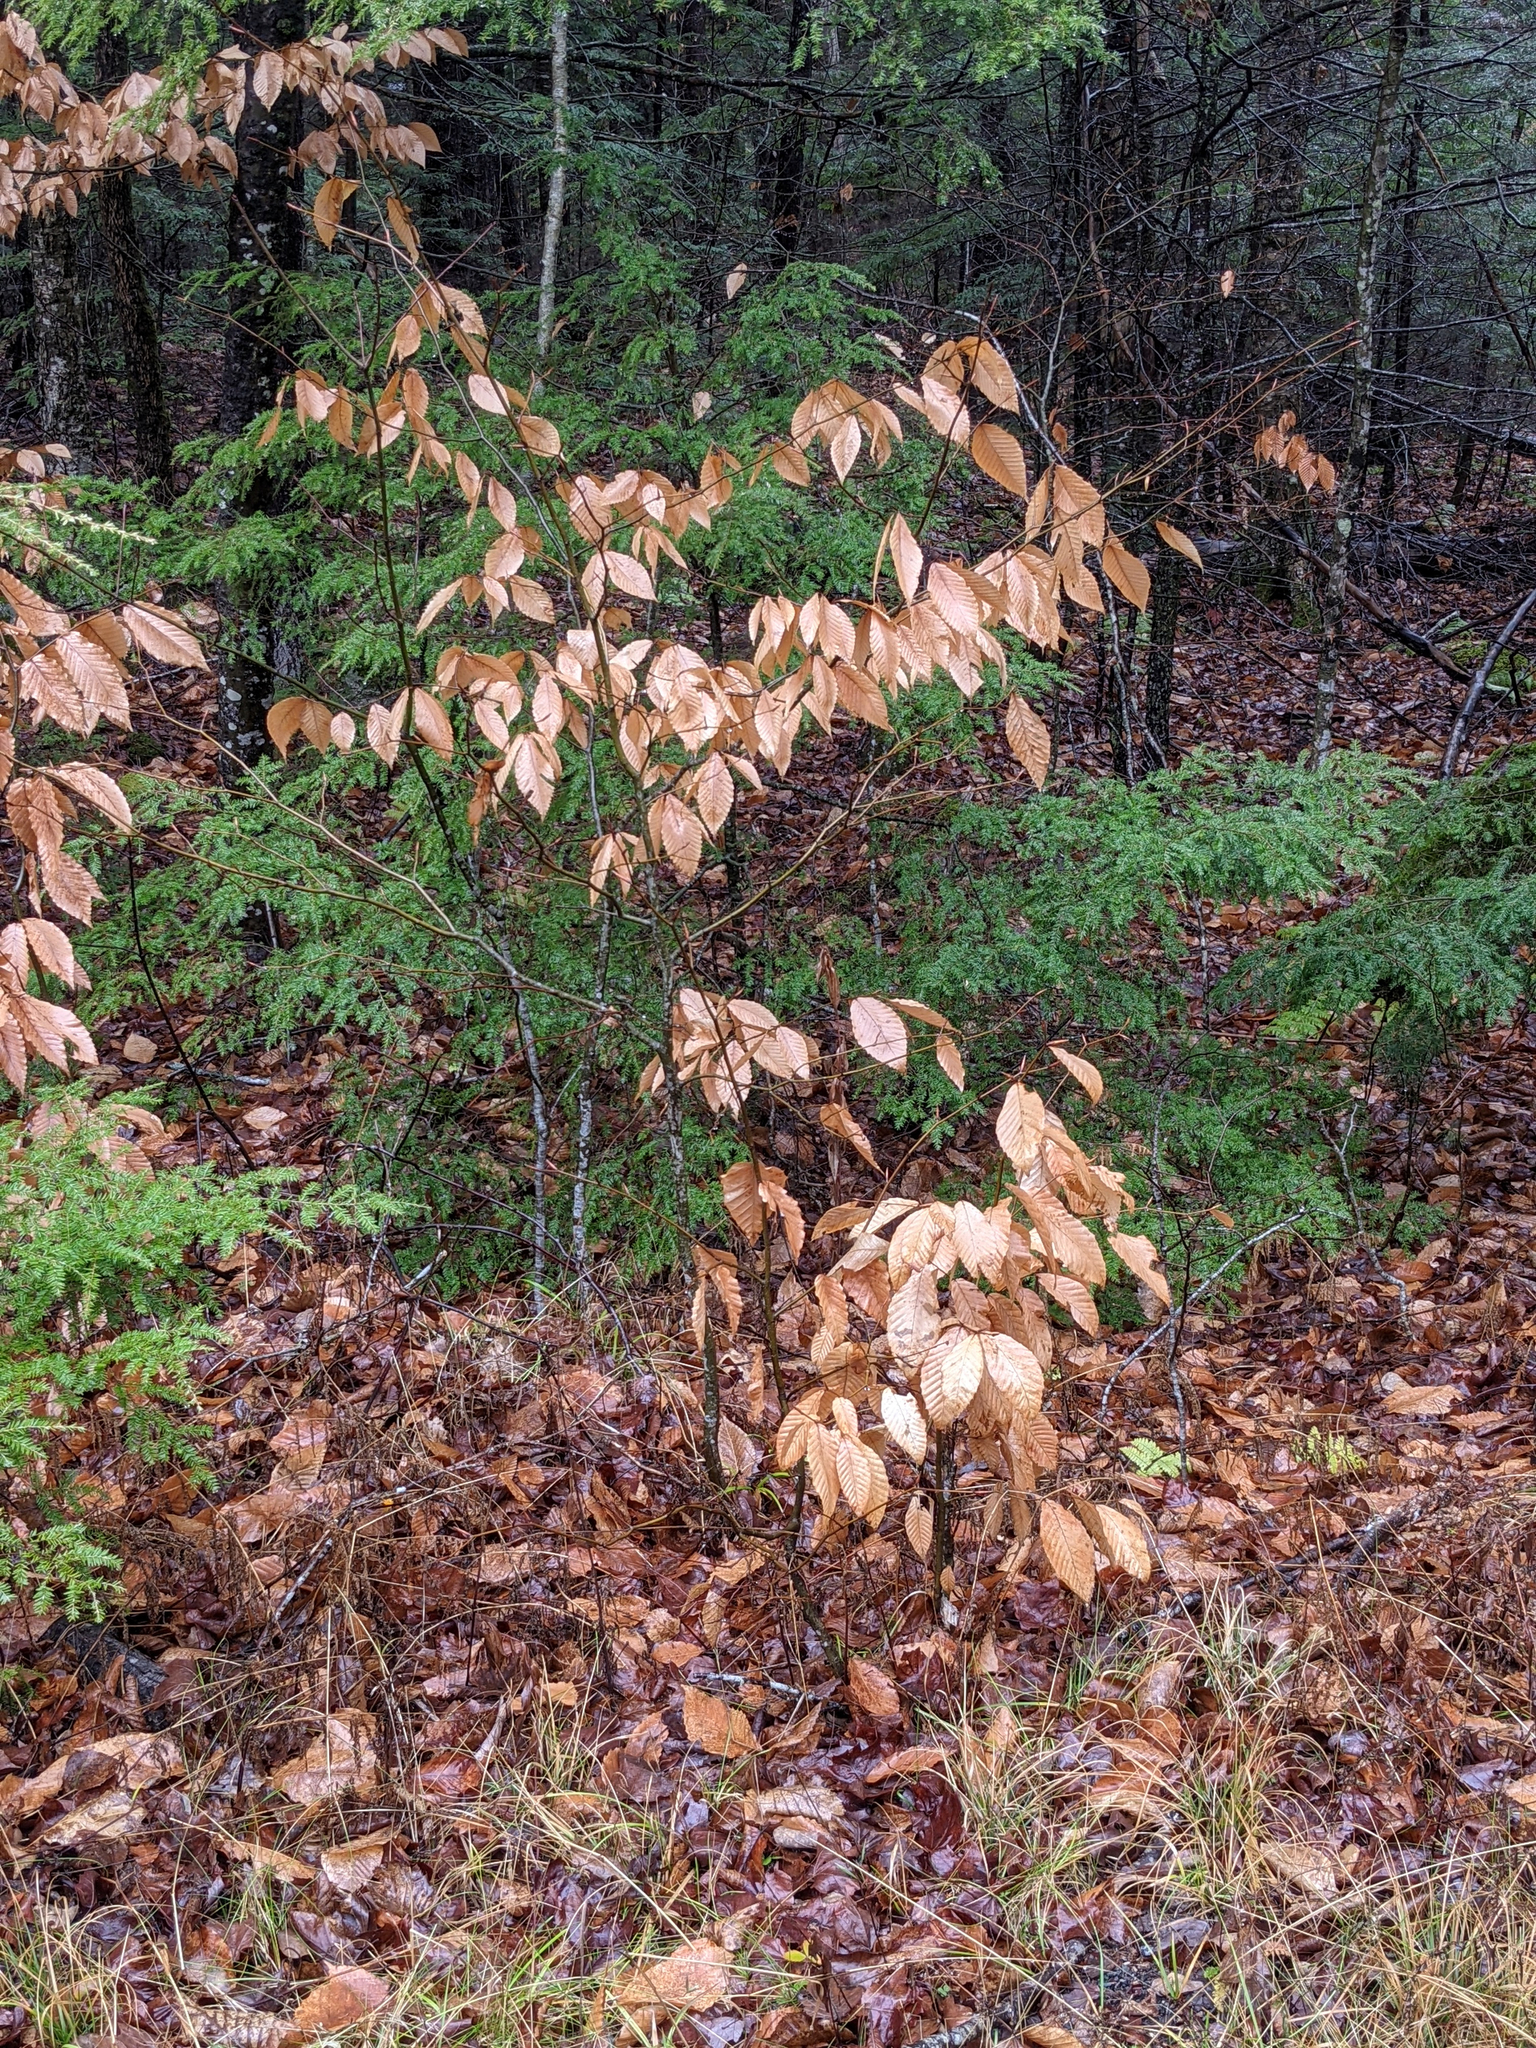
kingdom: Plantae
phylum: Tracheophyta
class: Magnoliopsida
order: Fagales
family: Fagaceae
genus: Fagus
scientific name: Fagus grandifolia
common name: American beech
